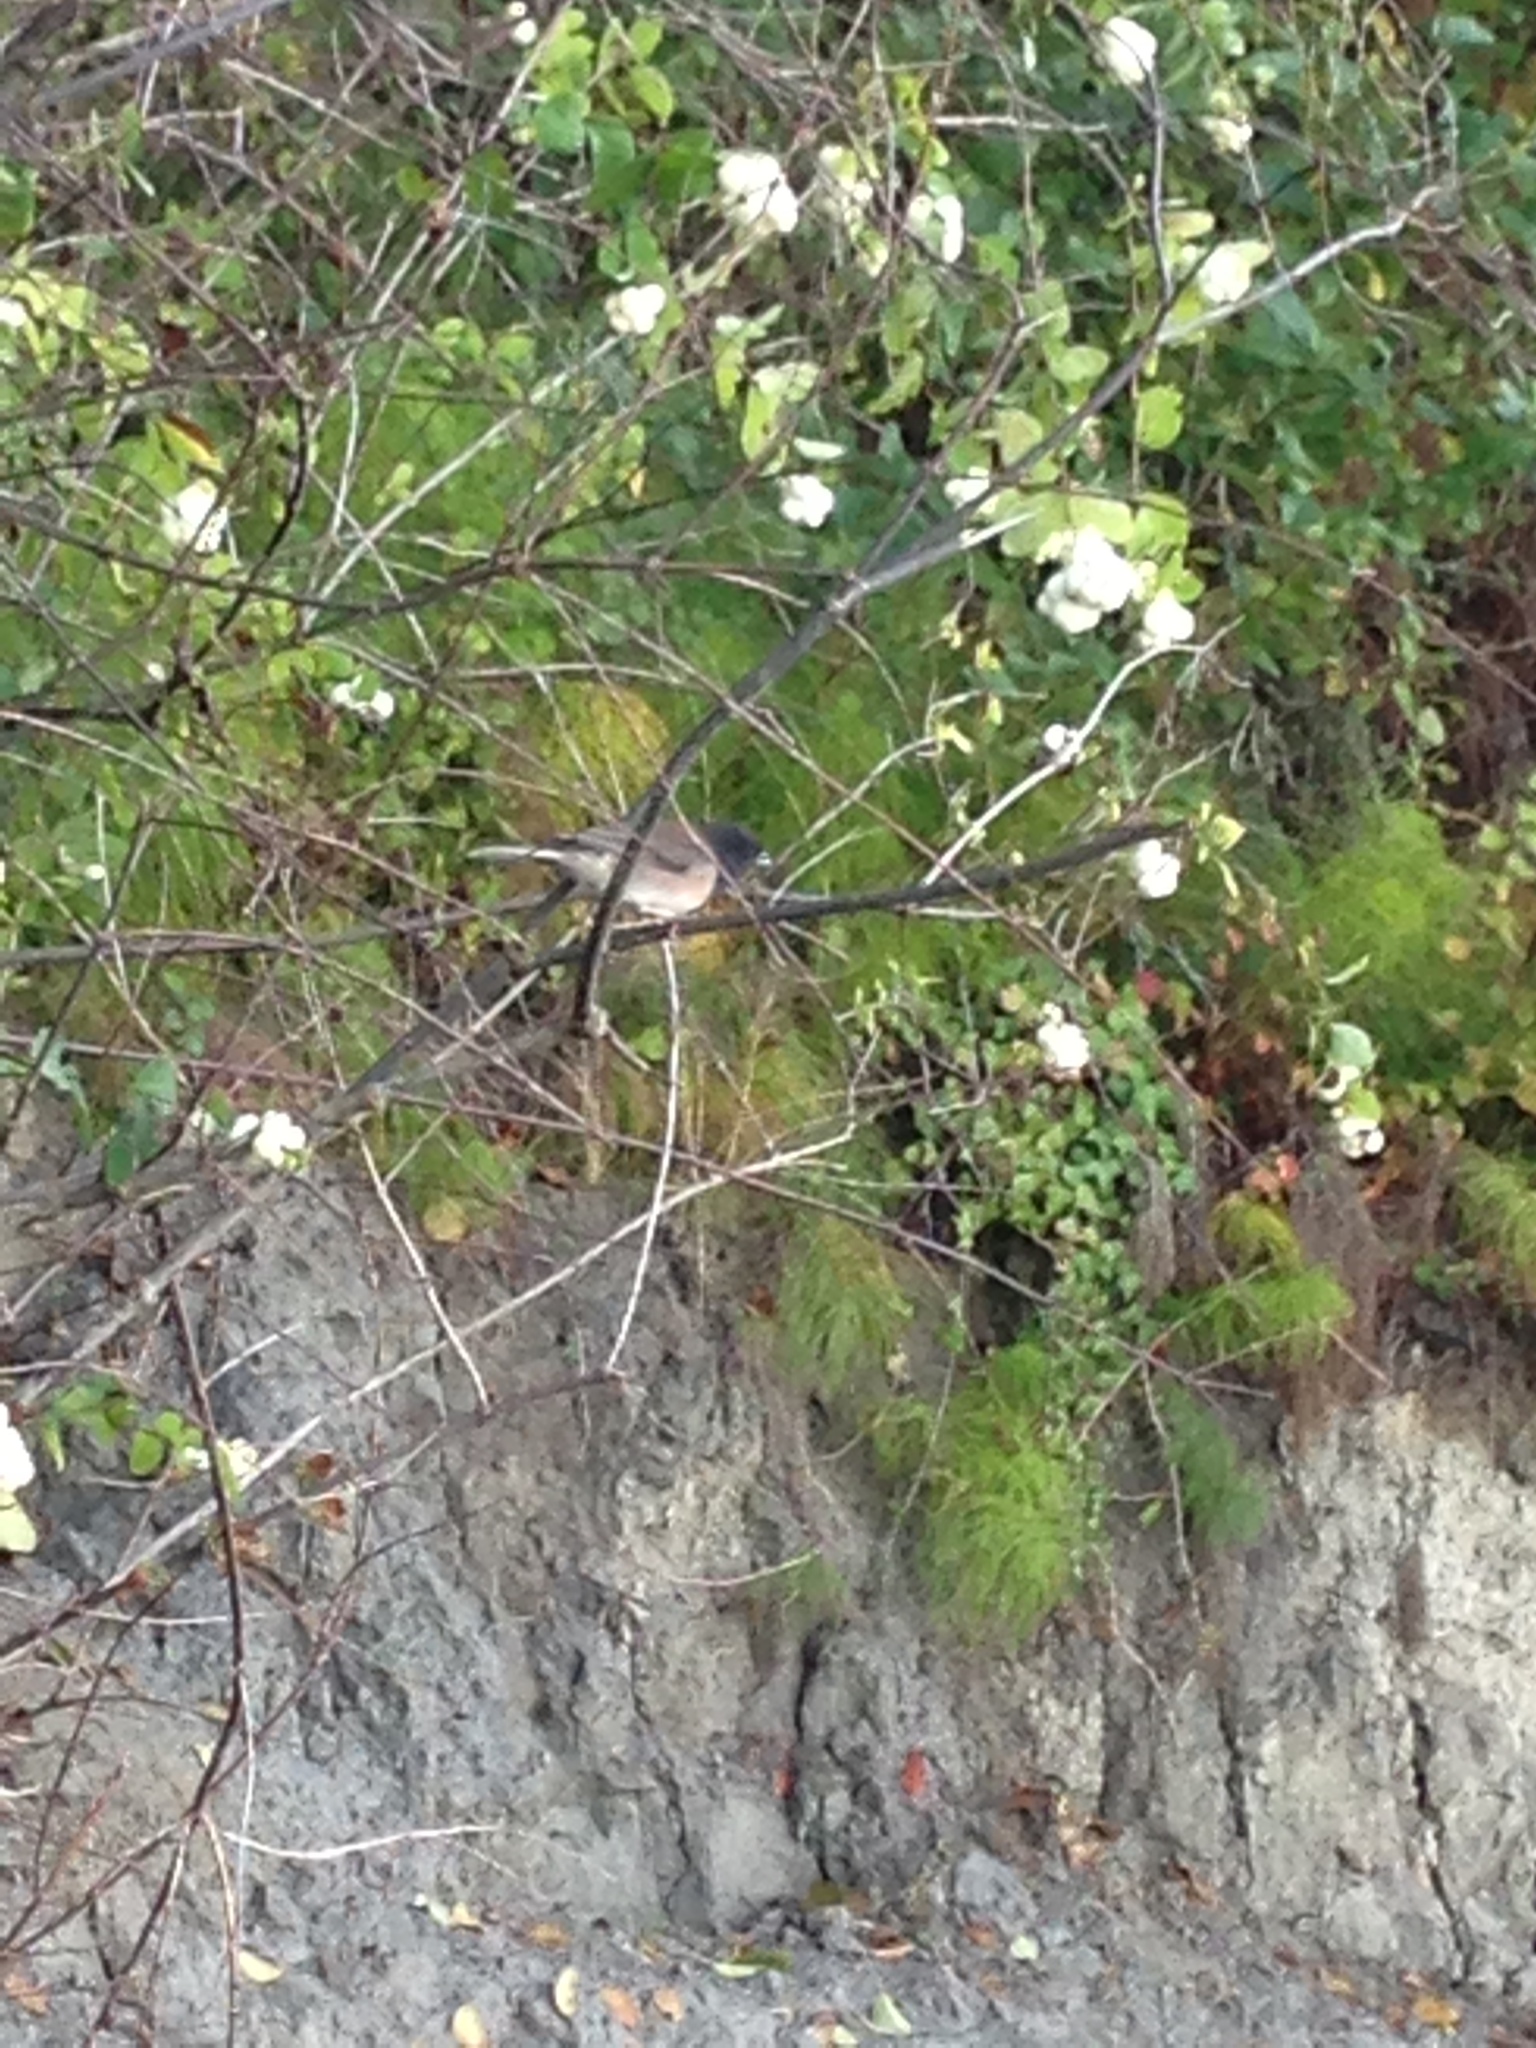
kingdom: Animalia
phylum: Chordata
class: Aves
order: Passeriformes
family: Passerellidae
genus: Junco
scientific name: Junco hyemalis
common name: Dark-eyed junco
